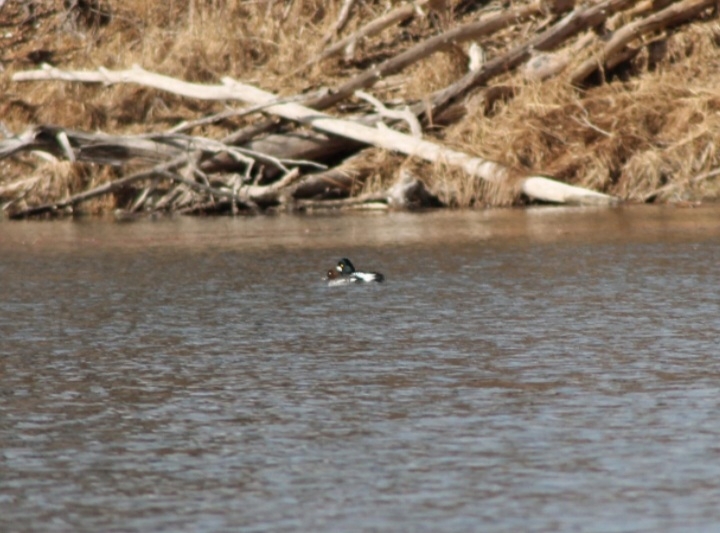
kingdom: Animalia
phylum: Chordata
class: Aves
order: Anseriformes
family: Anatidae
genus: Bucephala
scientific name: Bucephala clangula
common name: Common goldeneye
